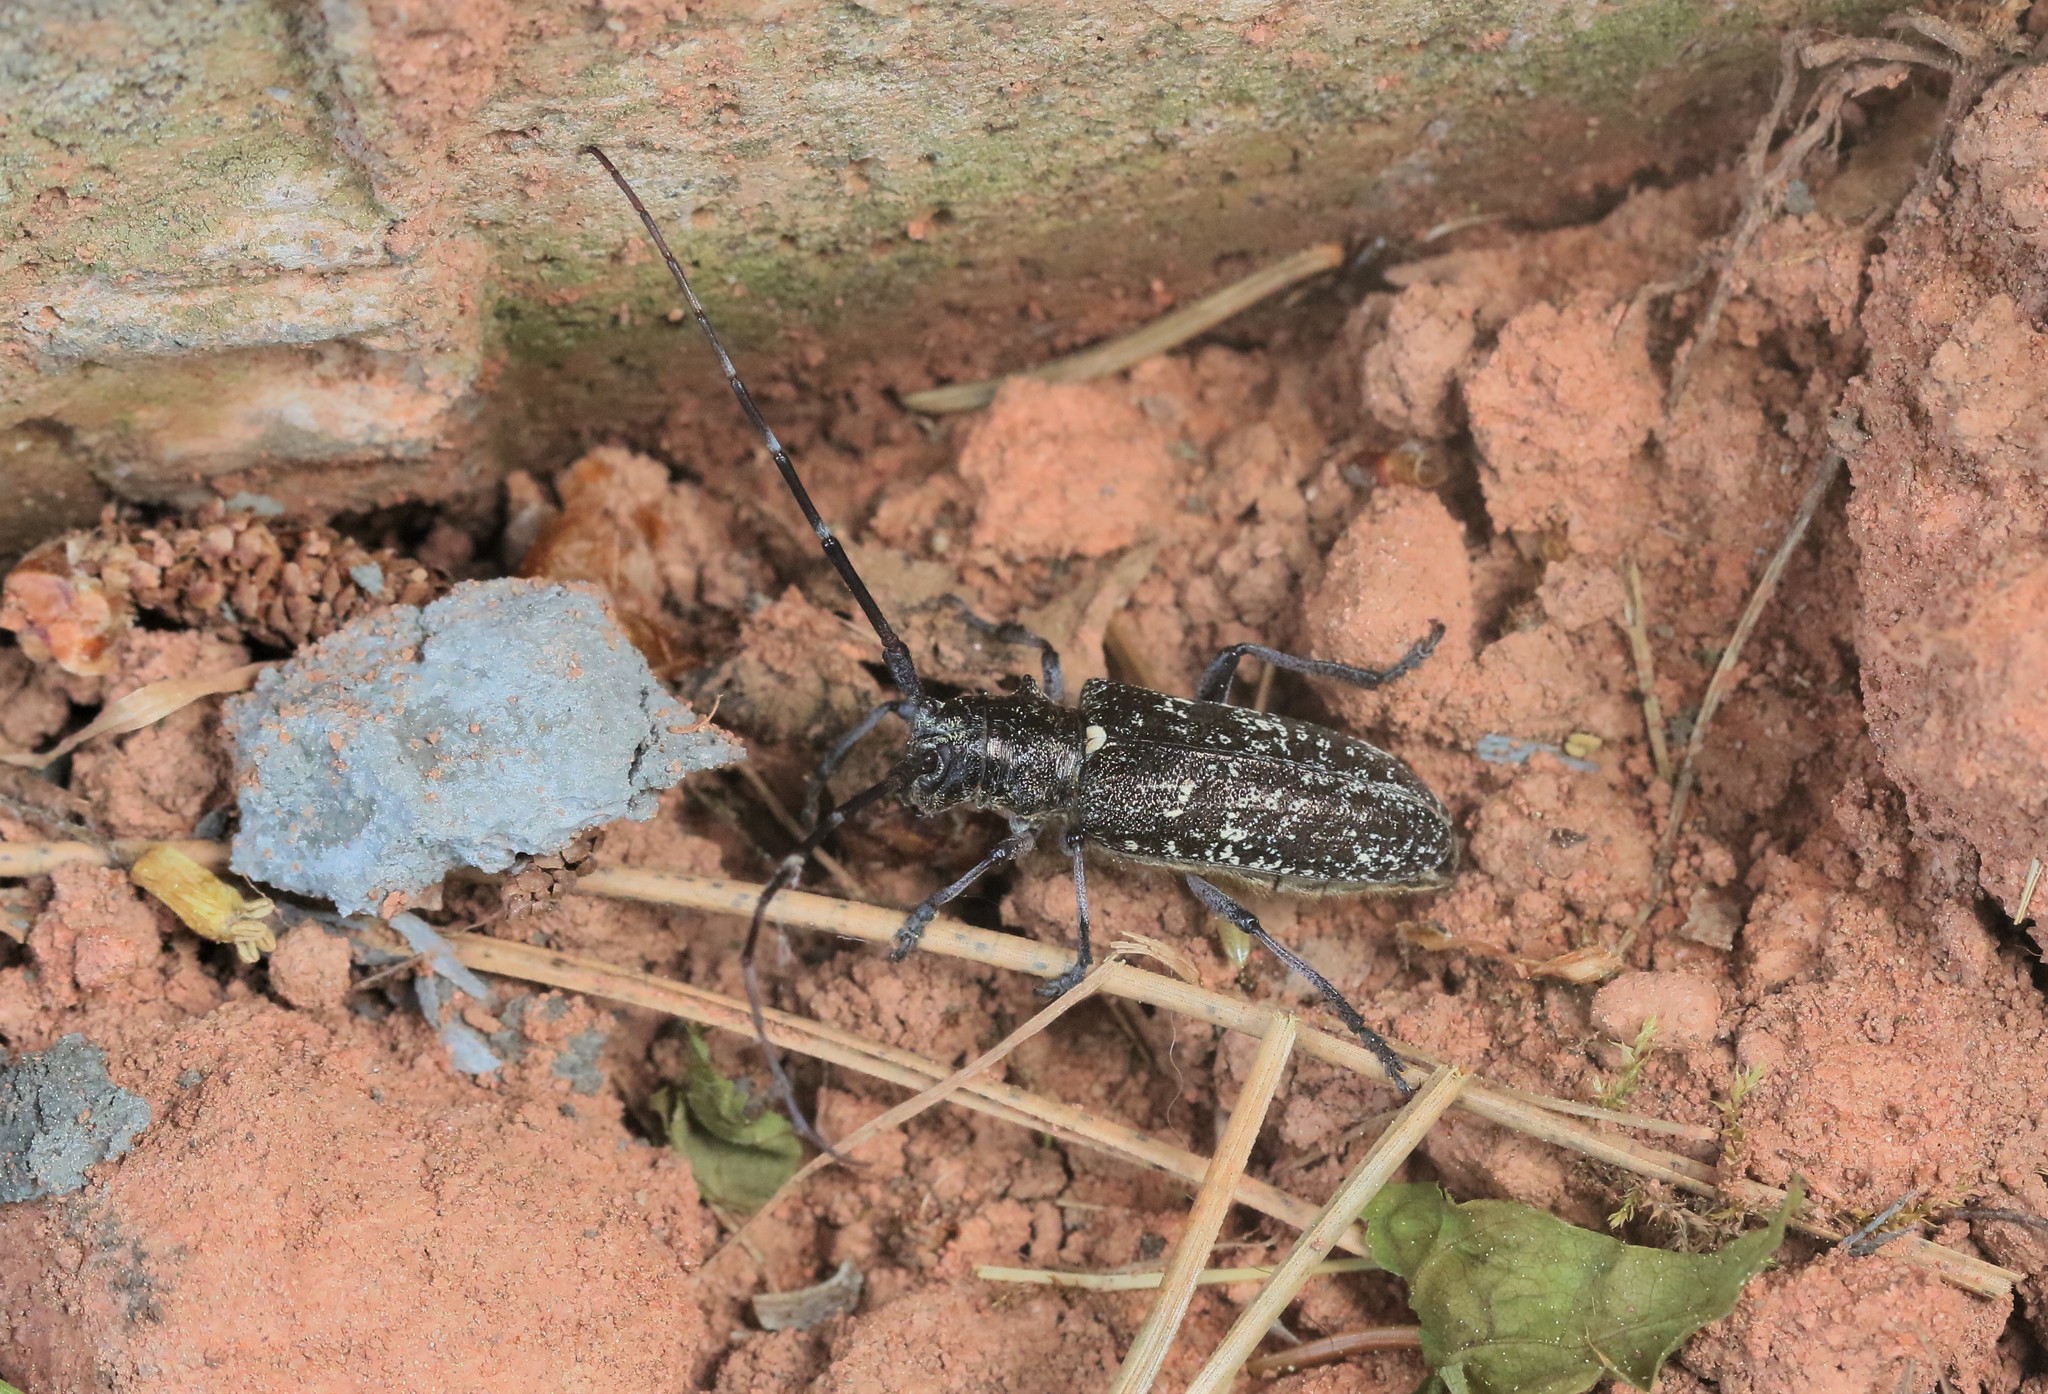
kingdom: Animalia
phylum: Arthropoda
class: Insecta
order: Coleoptera
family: Cerambycidae
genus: Monochamus
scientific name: Monochamus scutellatus
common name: White-spotted sawyer beetle
